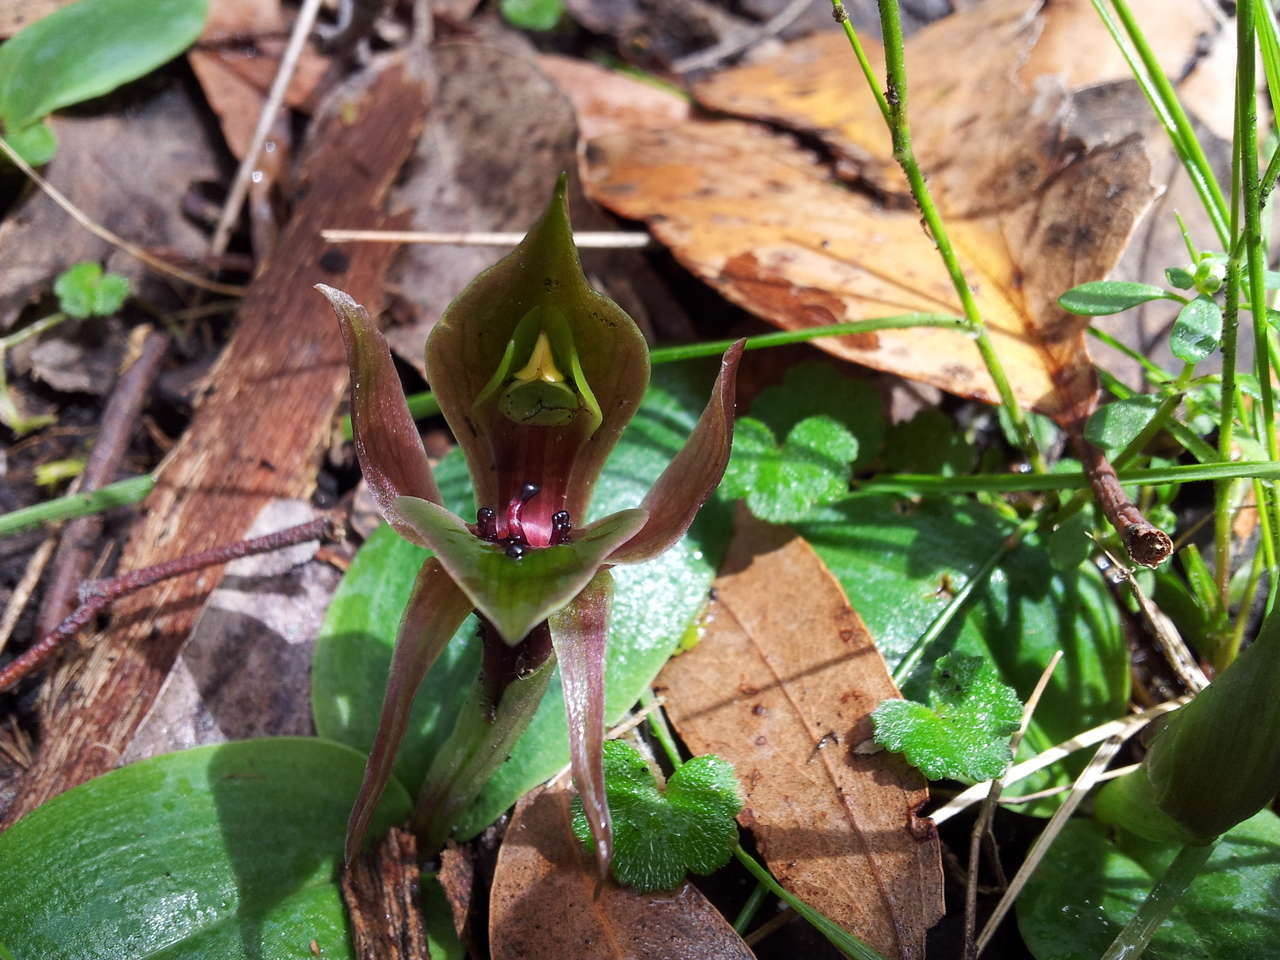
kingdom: Plantae
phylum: Tracheophyta
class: Liliopsida
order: Asparagales
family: Orchidaceae
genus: Chiloglottis
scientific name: Chiloglottis valida
